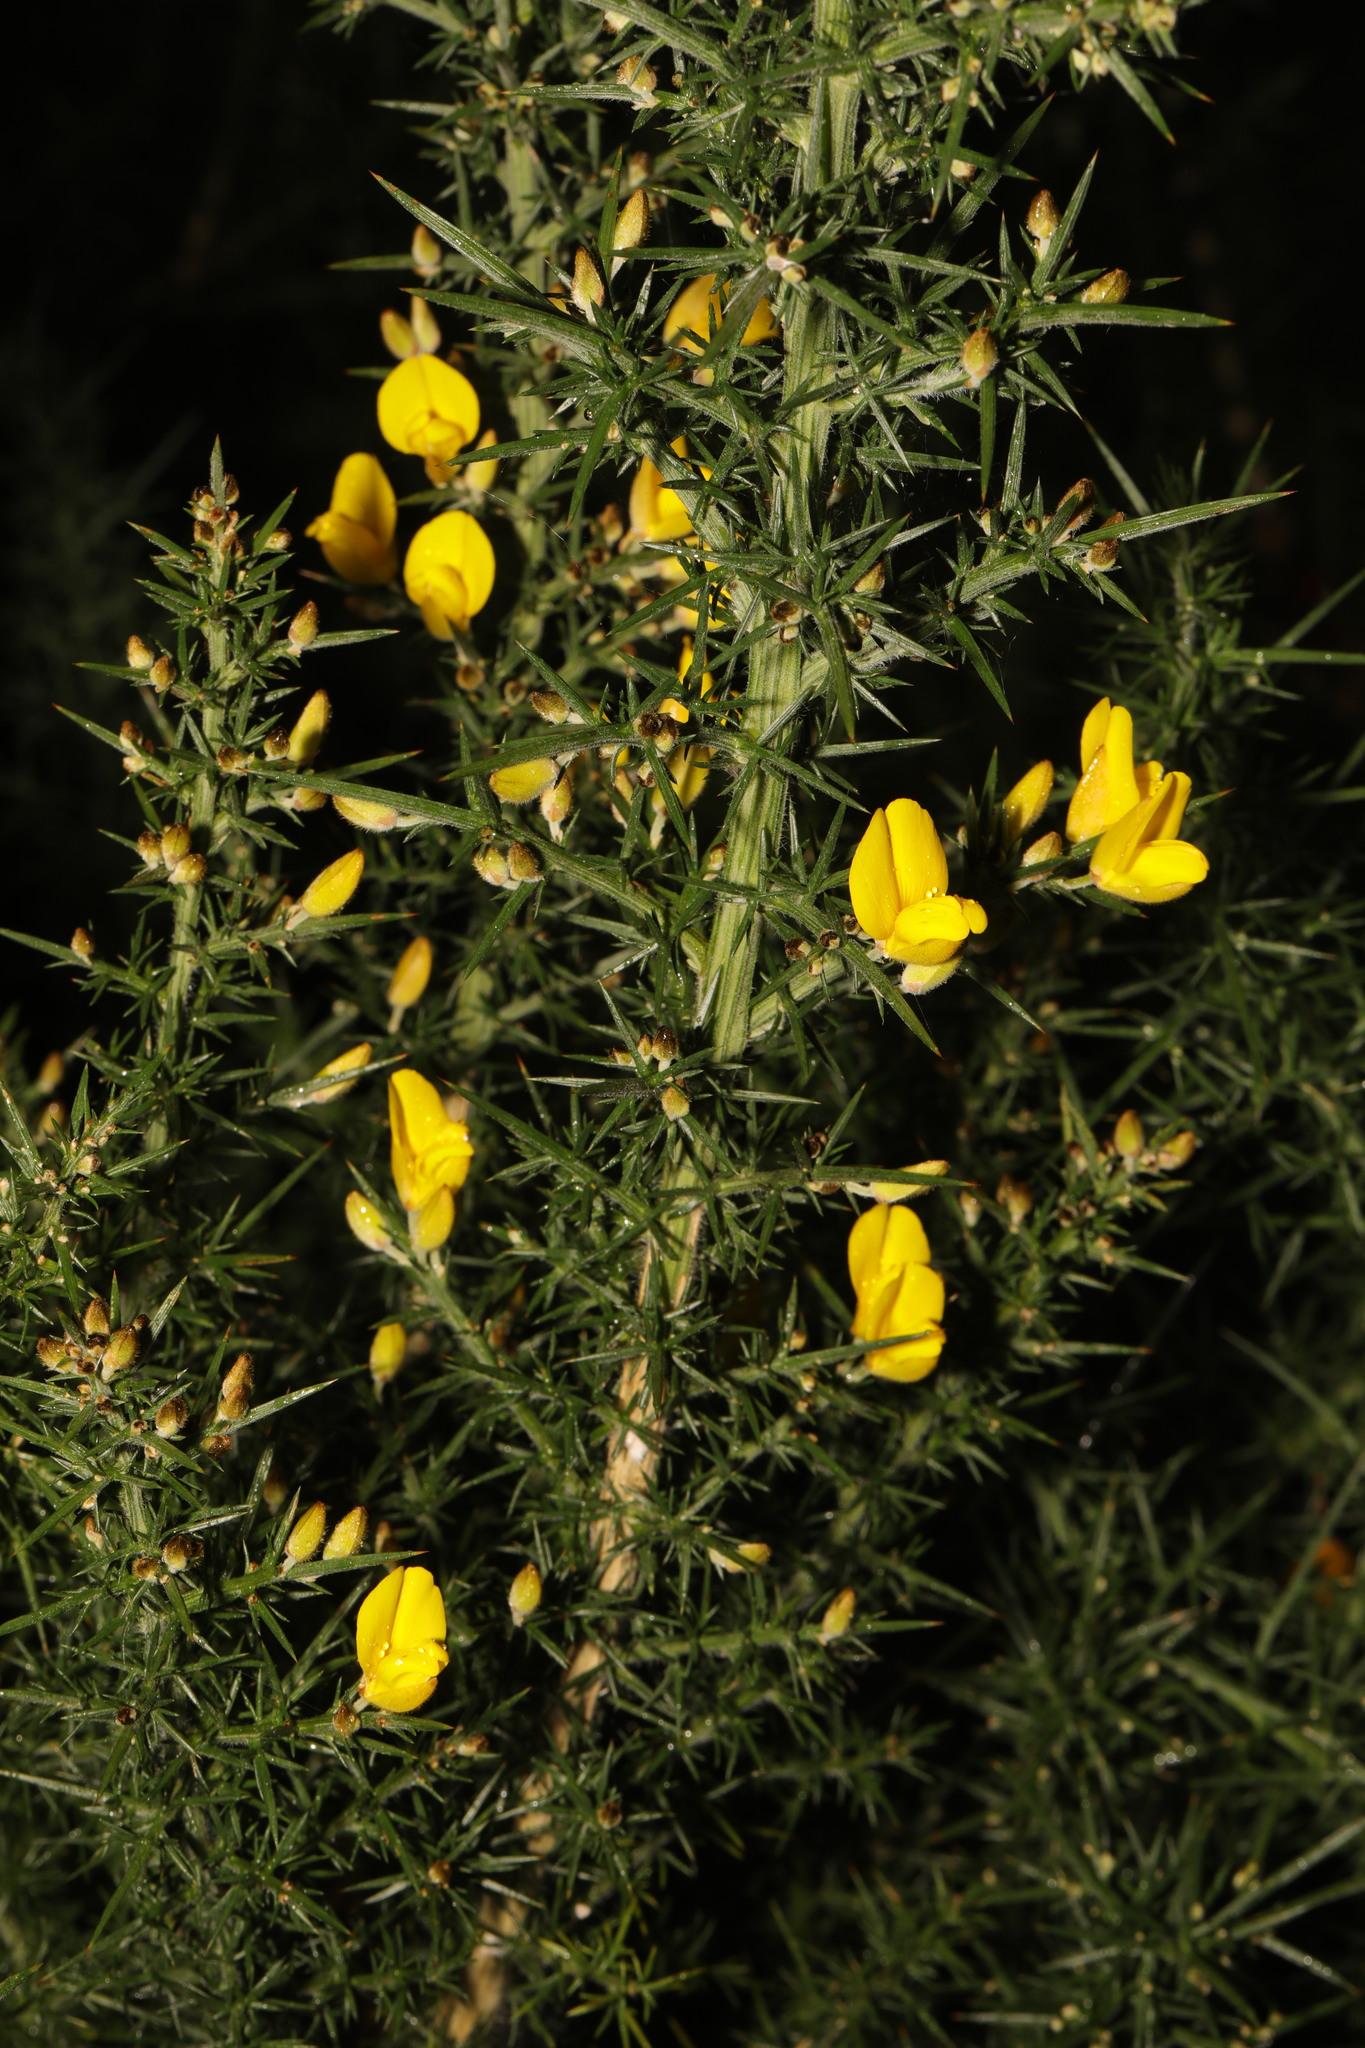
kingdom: Plantae
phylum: Tracheophyta
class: Magnoliopsida
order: Fabales
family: Fabaceae
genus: Ulex
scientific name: Ulex europaeus
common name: Common gorse
